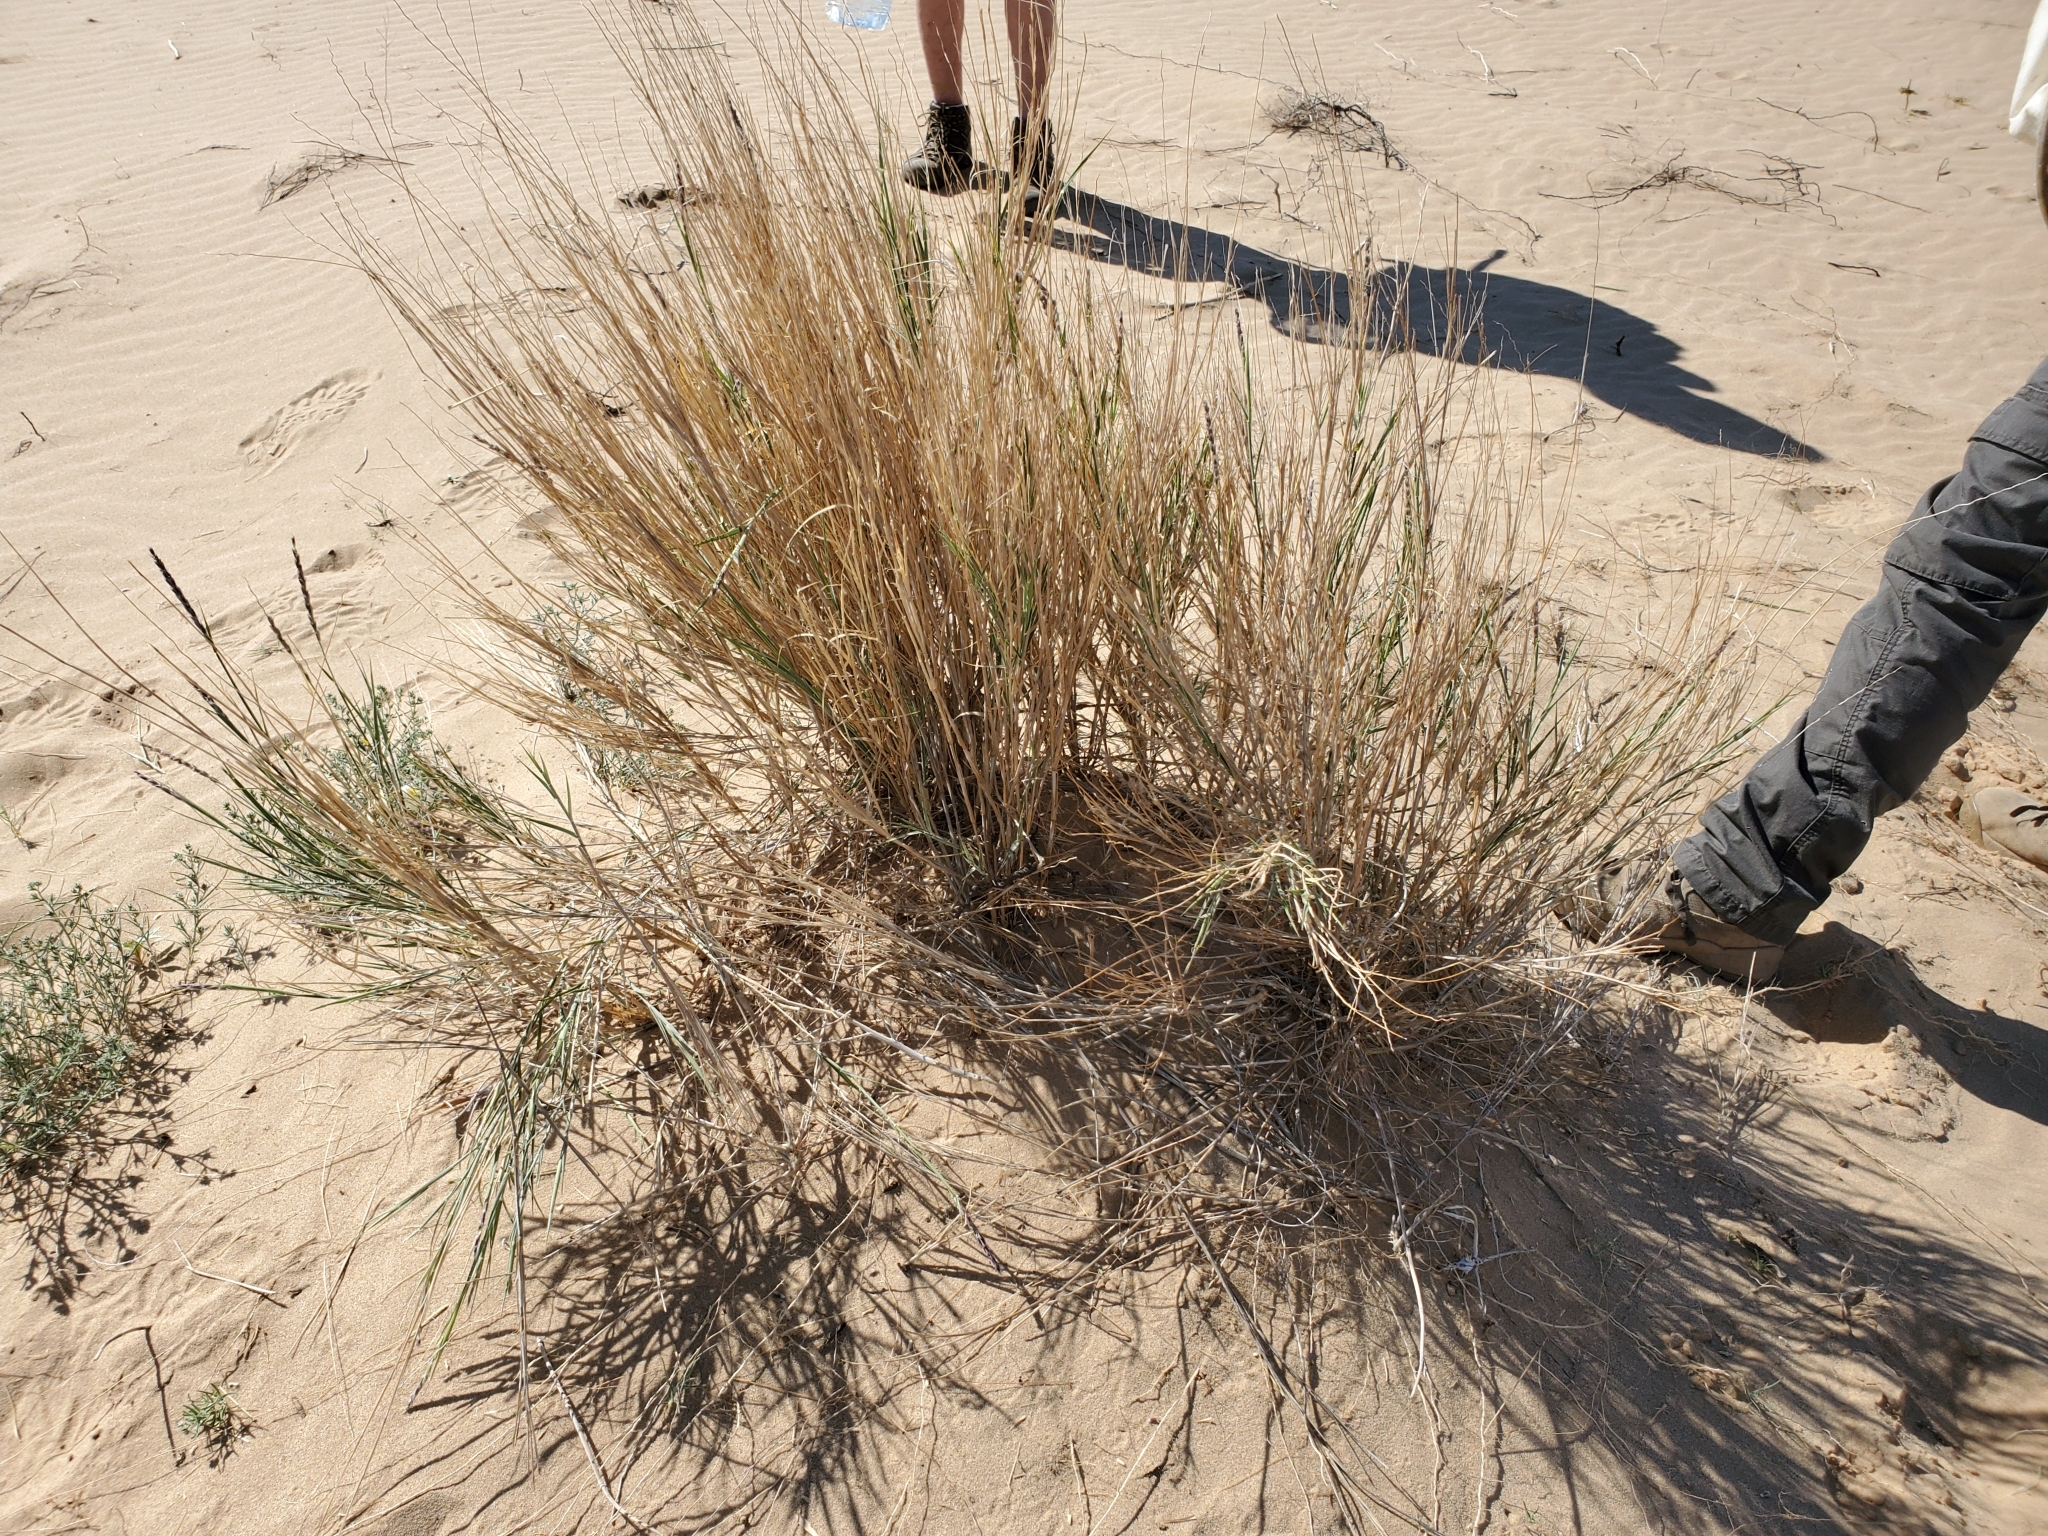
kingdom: Plantae
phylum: Tracheophyta
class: Liliopsida
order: Poales
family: Poaceae
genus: Hilaria
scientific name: Hilaria rigida
